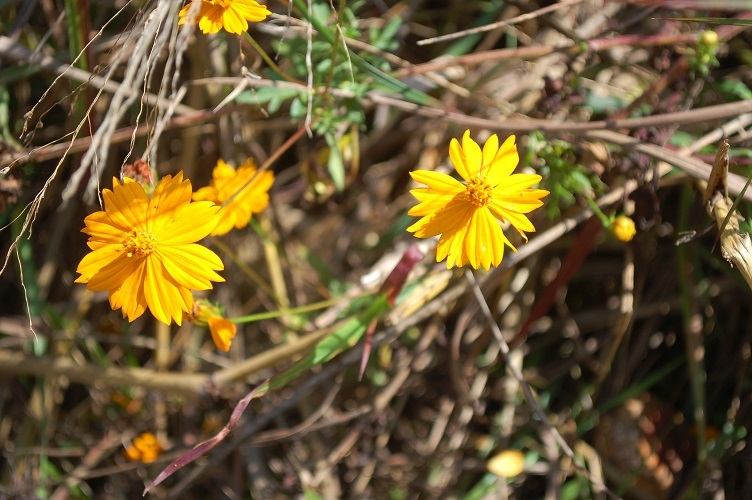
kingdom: Plantae
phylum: Tracheophyta
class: Magnoliopsida
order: Asterales
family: Asteraceae
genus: Cosmos
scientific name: Cosmos sulphureus
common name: Sulphur cosmos
